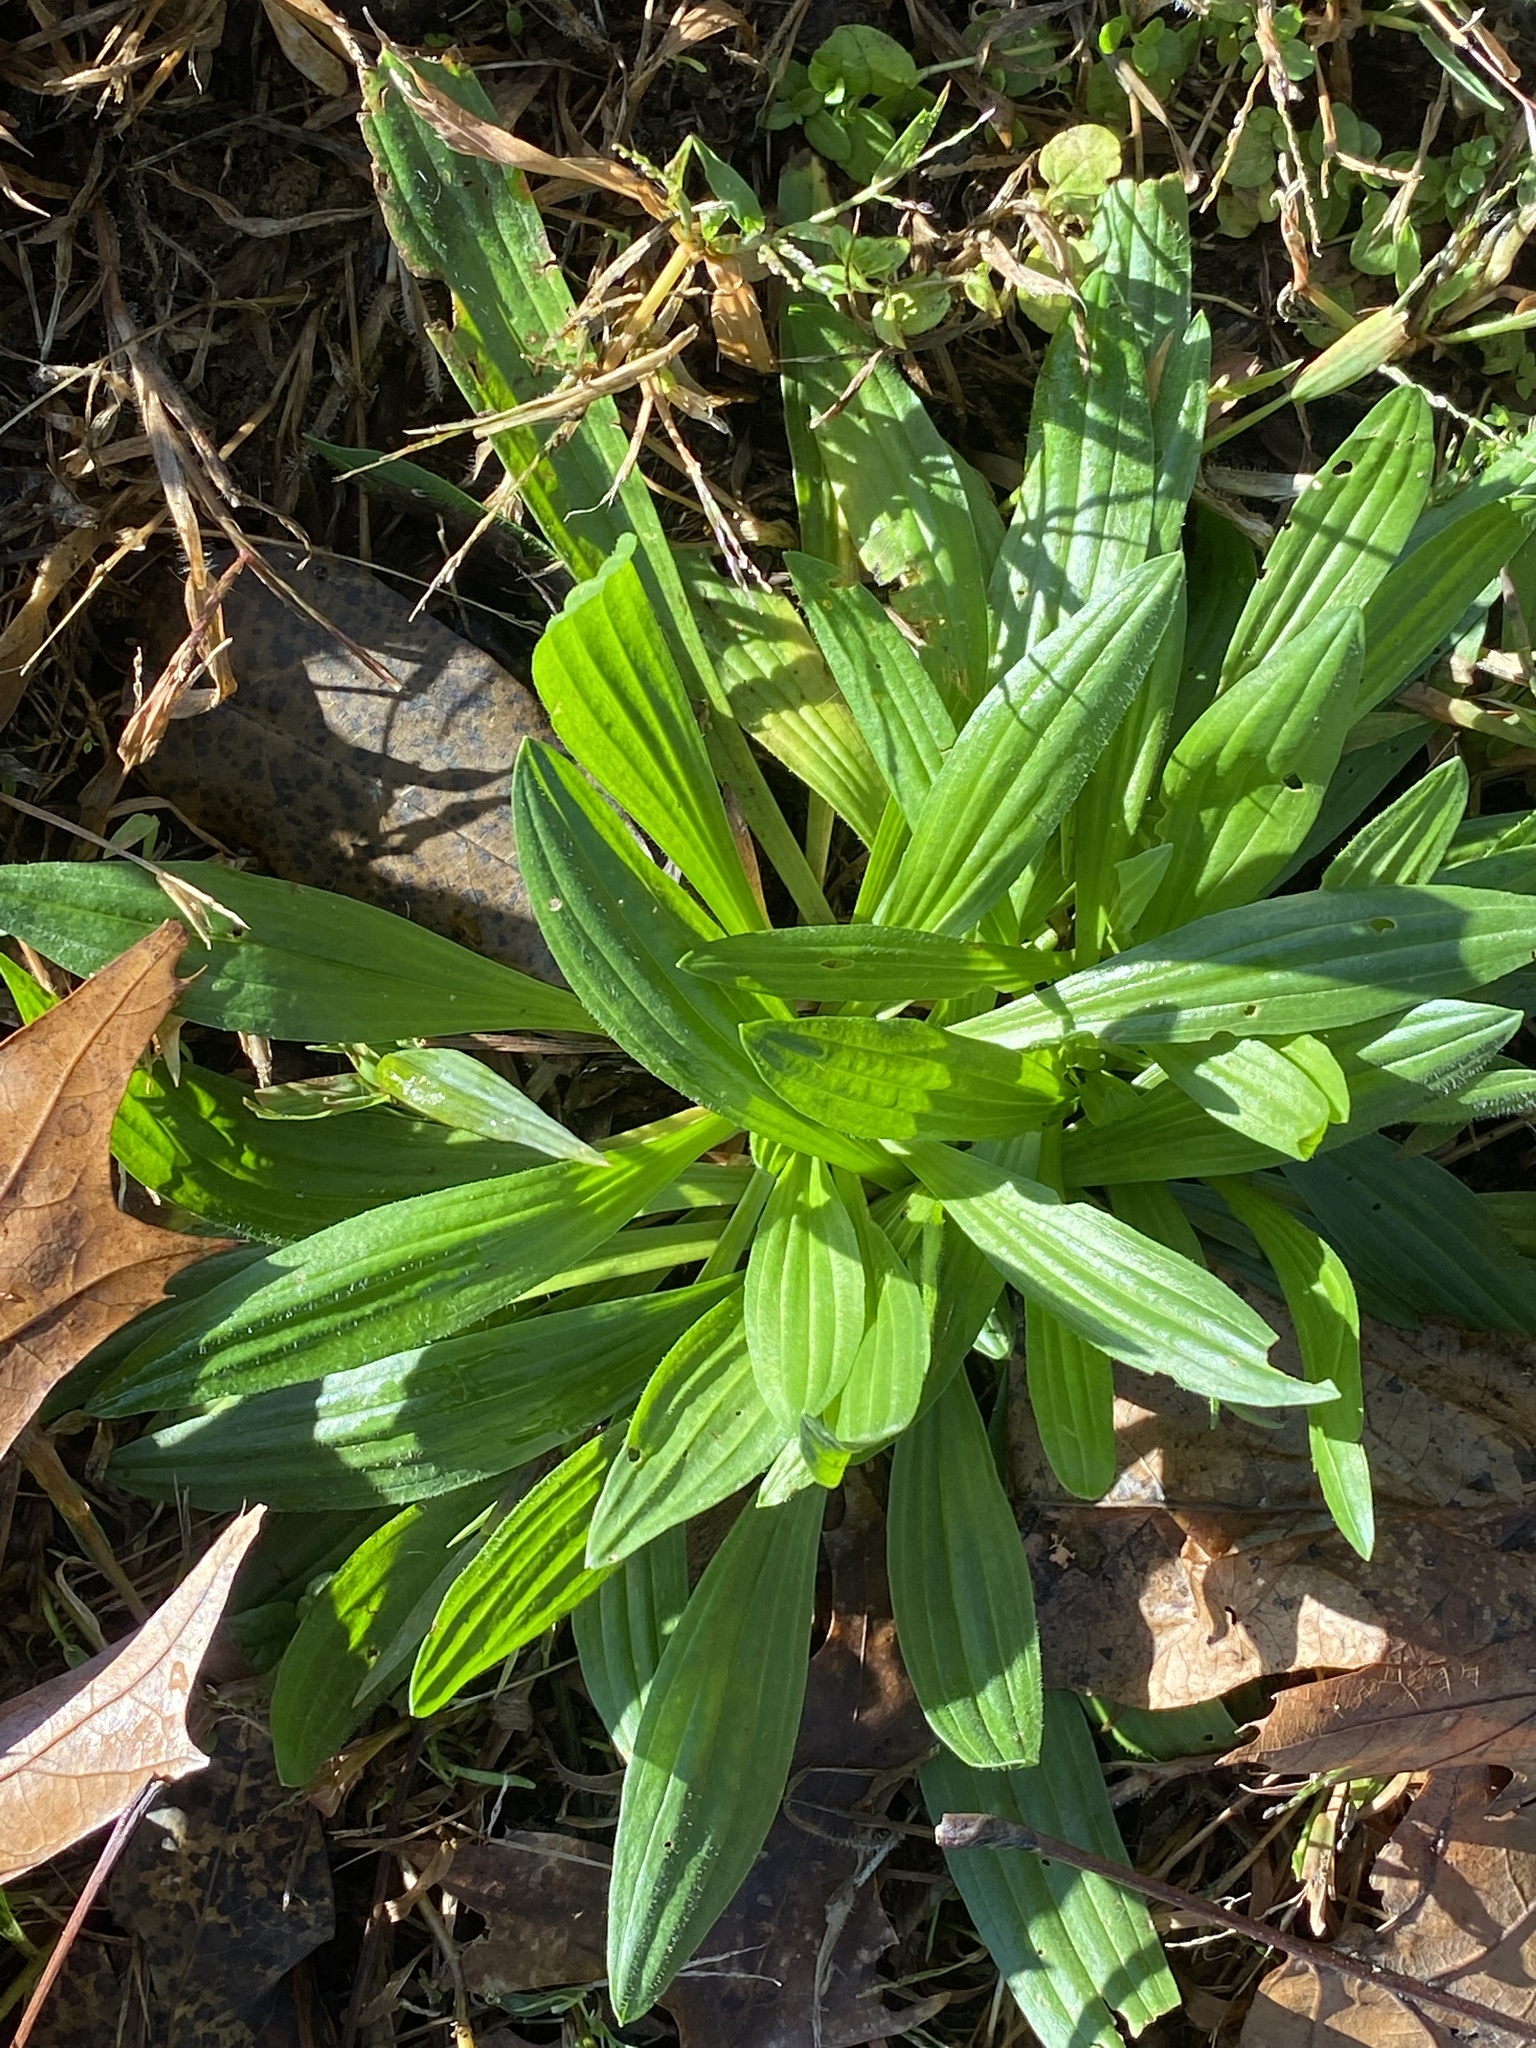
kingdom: Plantae
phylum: Tracheophyta
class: Magnoliopsida
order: Lamiales
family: Plantaginaceae
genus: Plantago
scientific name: Plantago lanceolata
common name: Ribwort plantain
